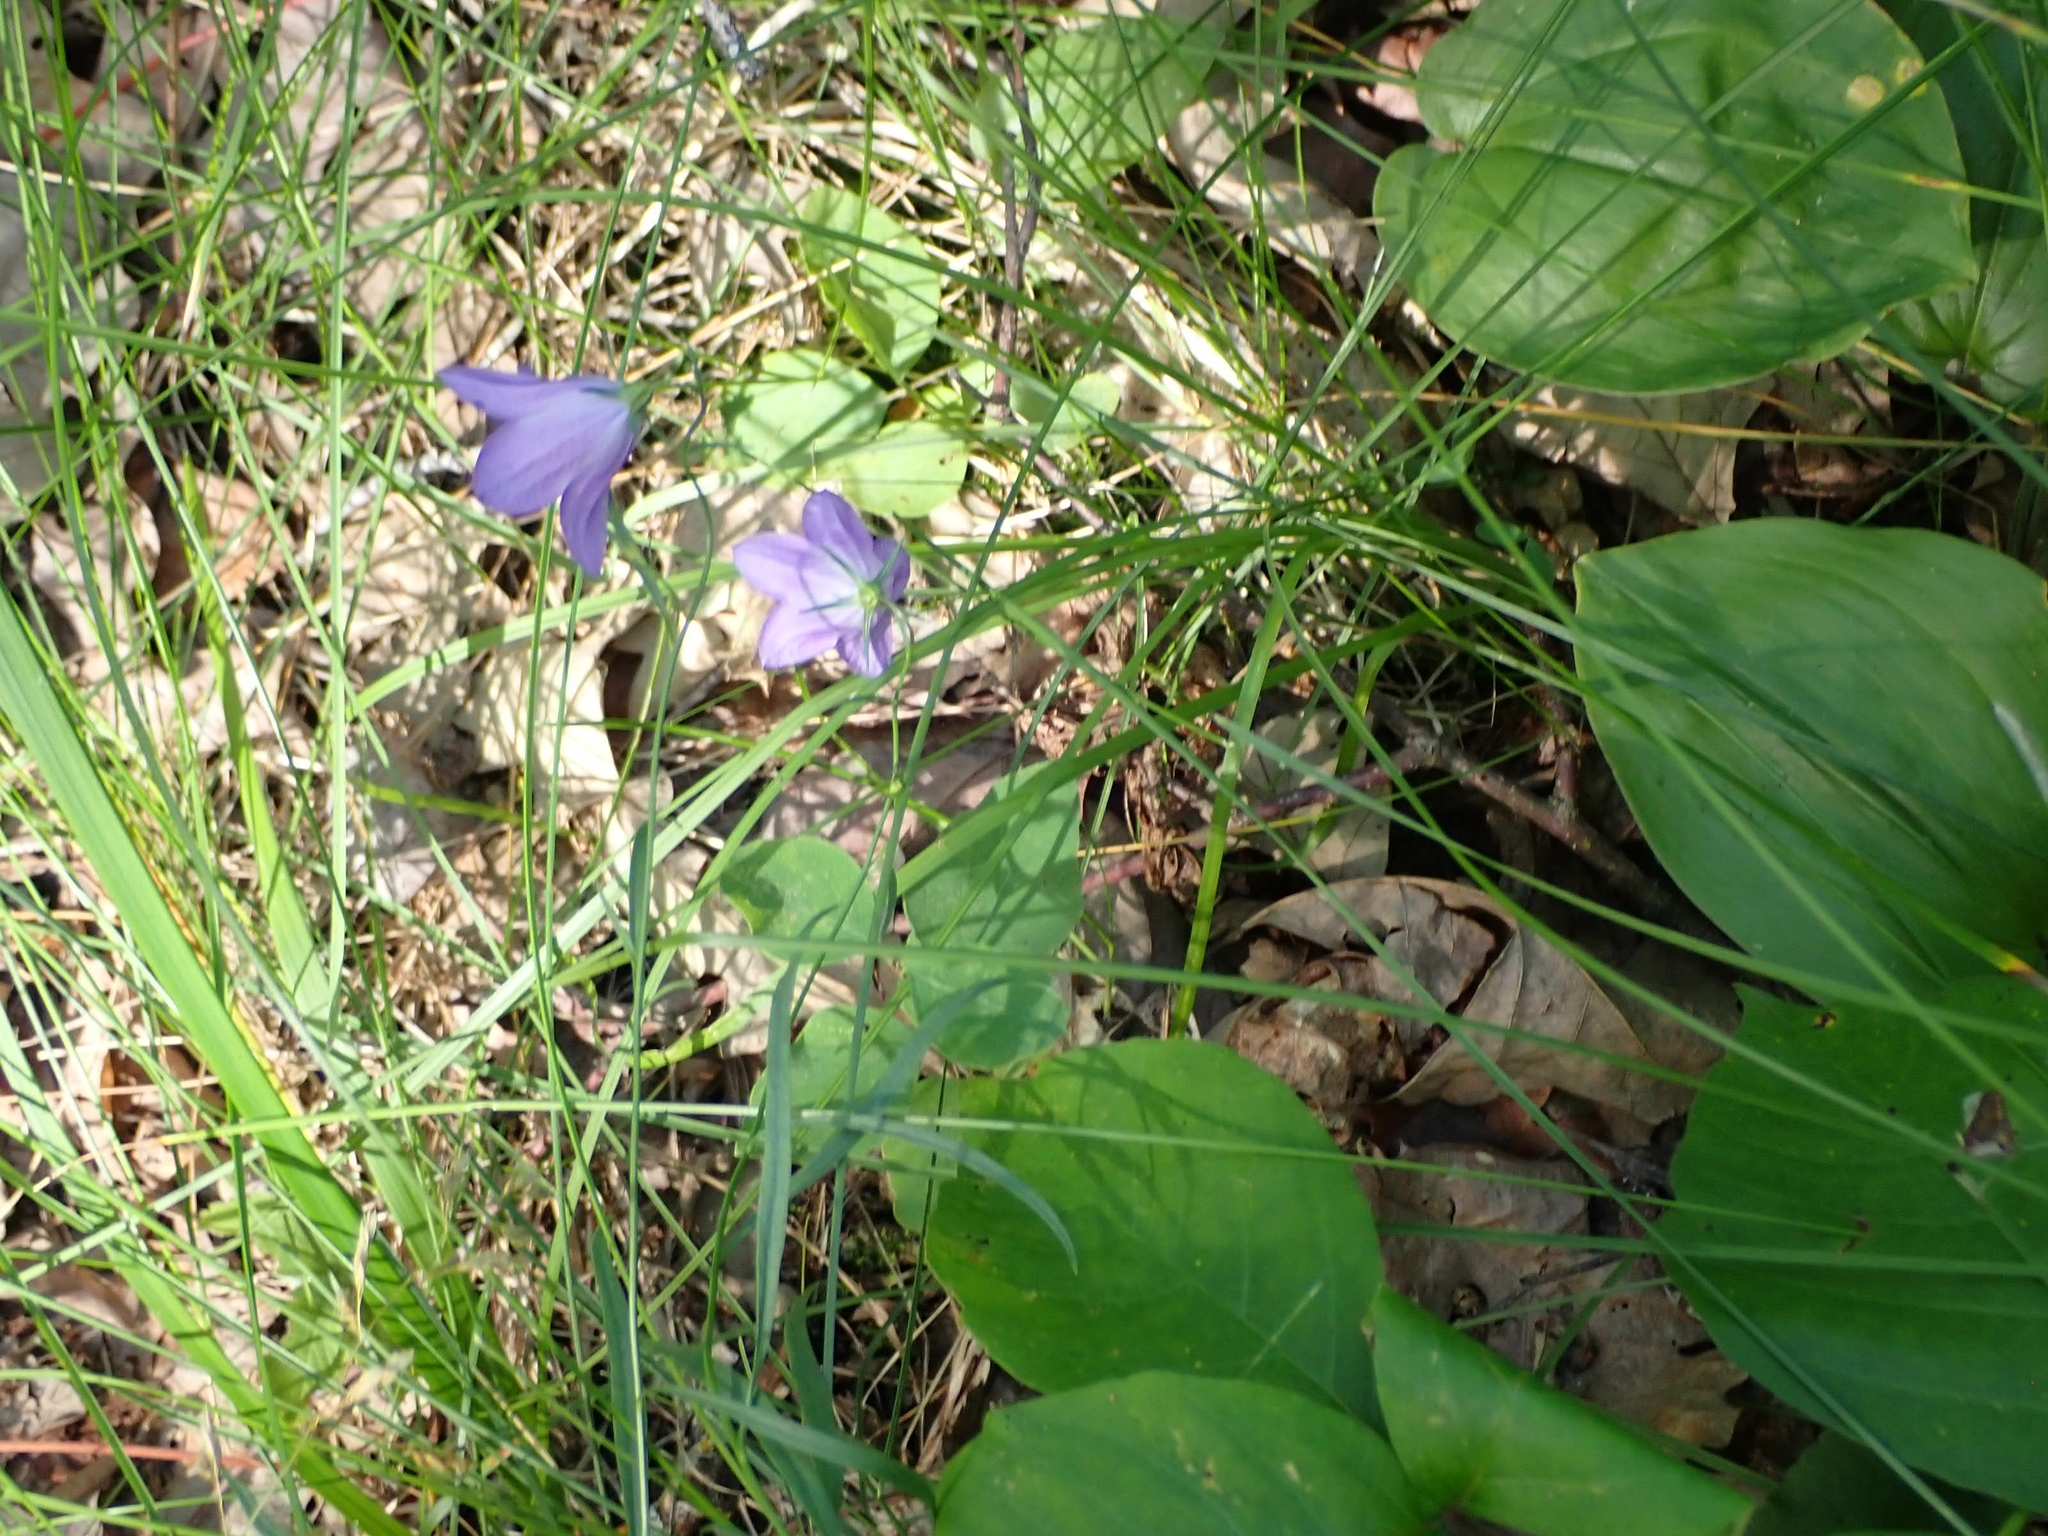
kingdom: Plantae
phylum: Tracheophyta
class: Magnoliopsida
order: Asterales
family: Campanulaceae
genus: Campanula
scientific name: Campanula petiolata
